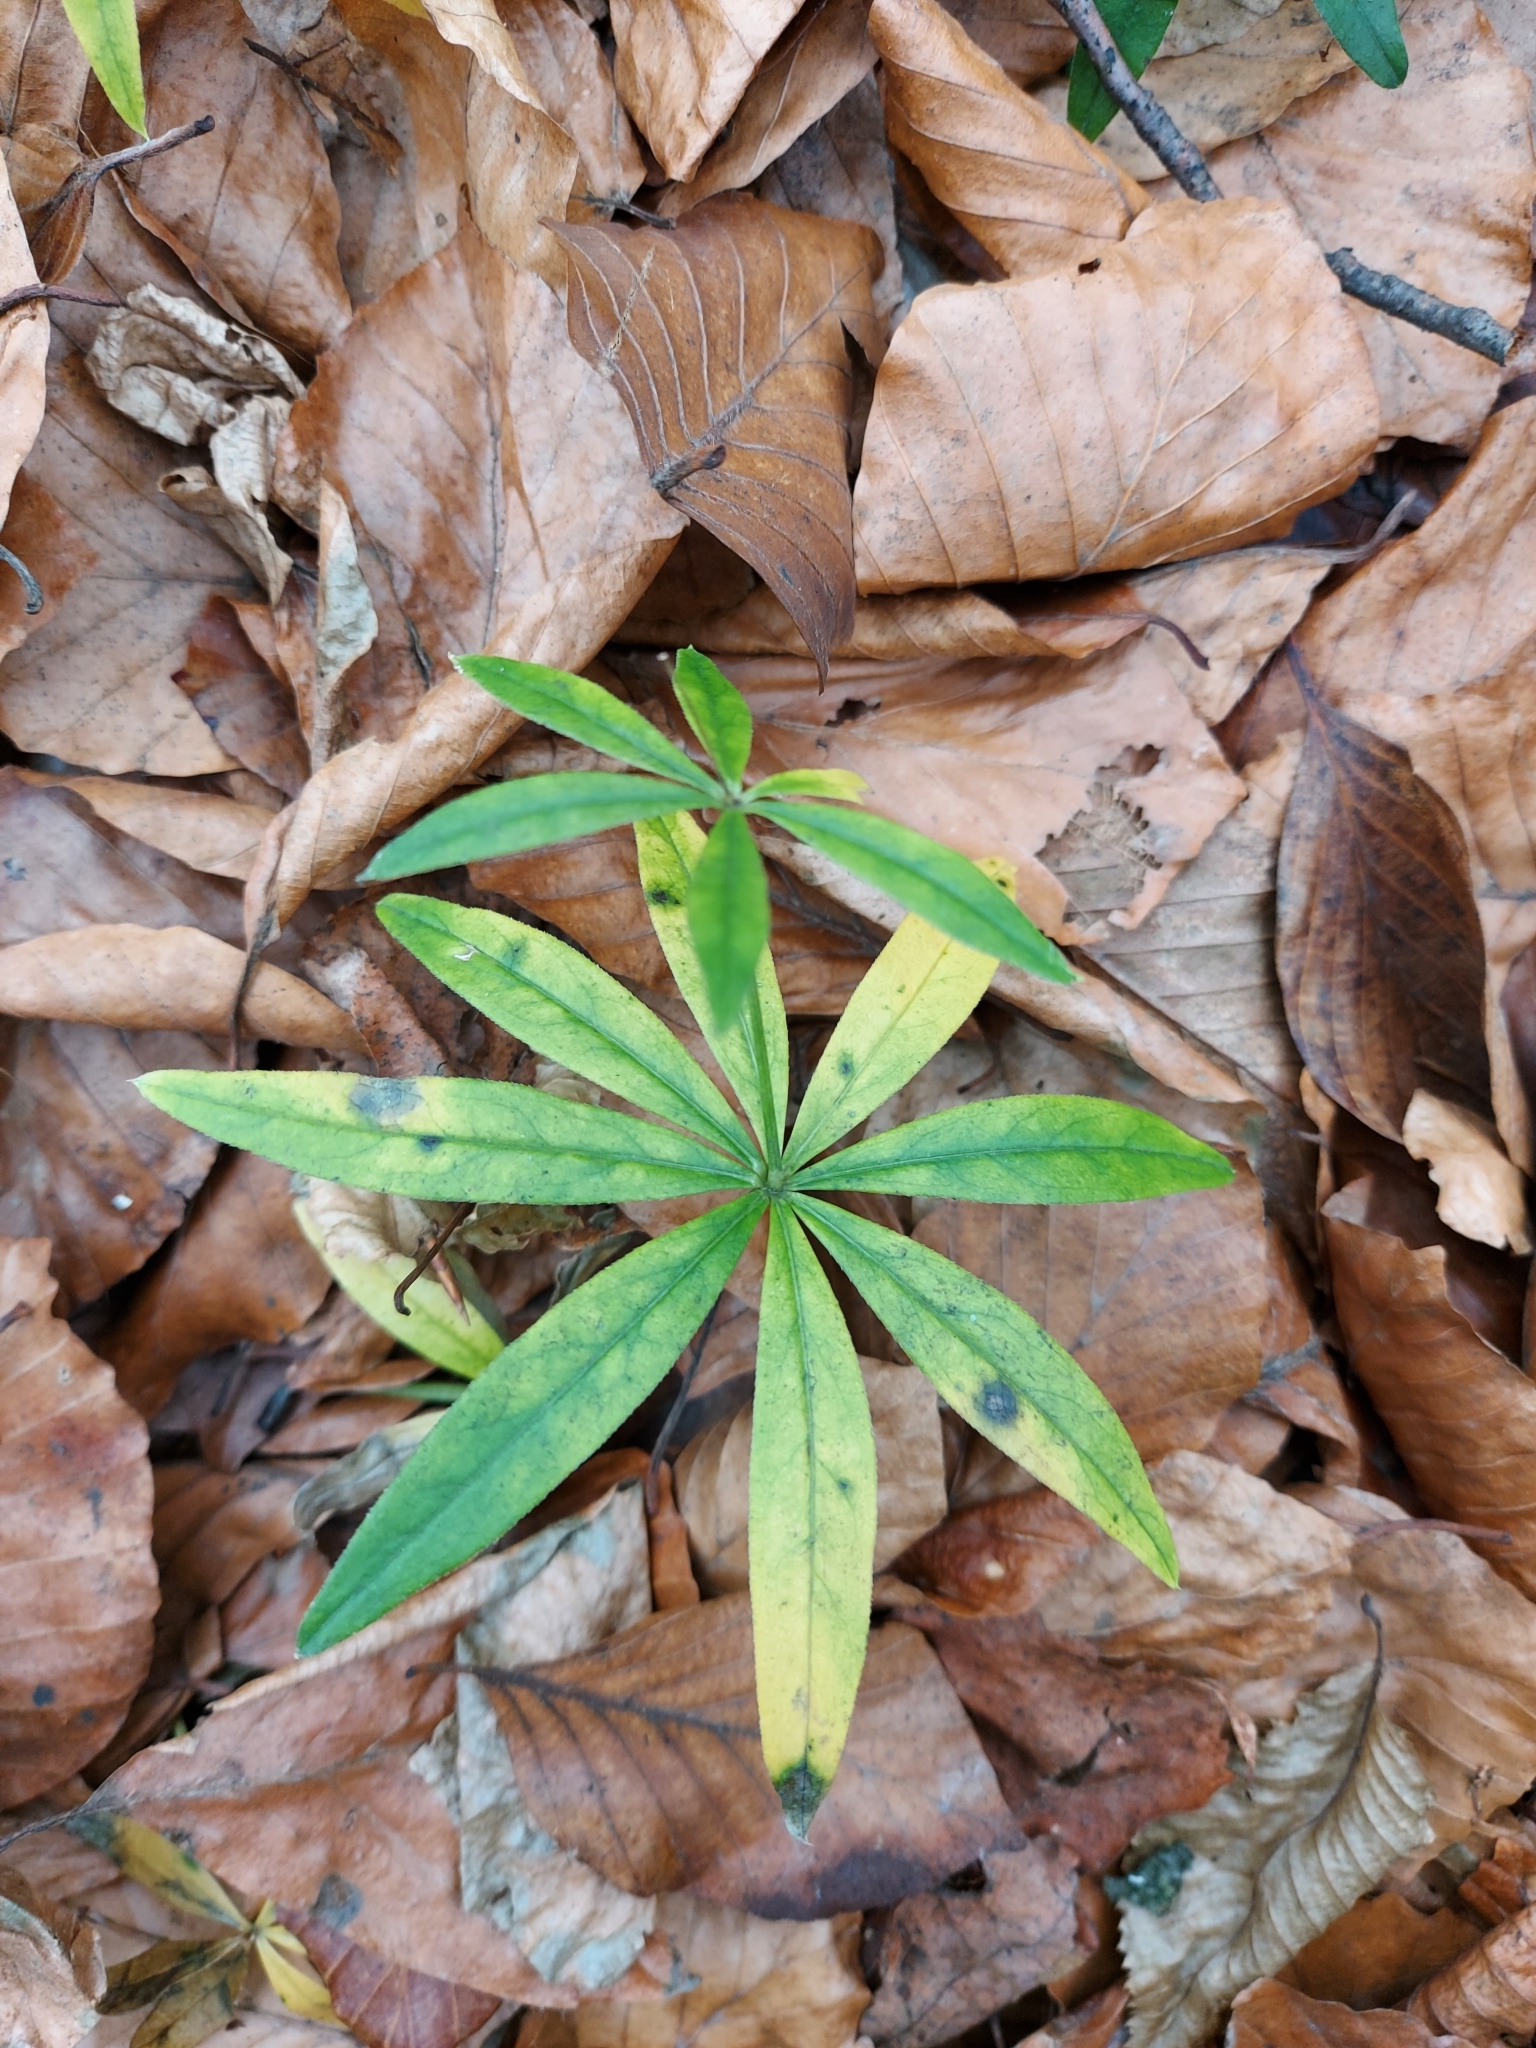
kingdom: Plantae
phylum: Tracheophyta
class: Magnoliopsida
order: Gentianales
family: Rubiaceae
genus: Galium
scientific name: Galium odoratum
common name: Sweet woodruff
